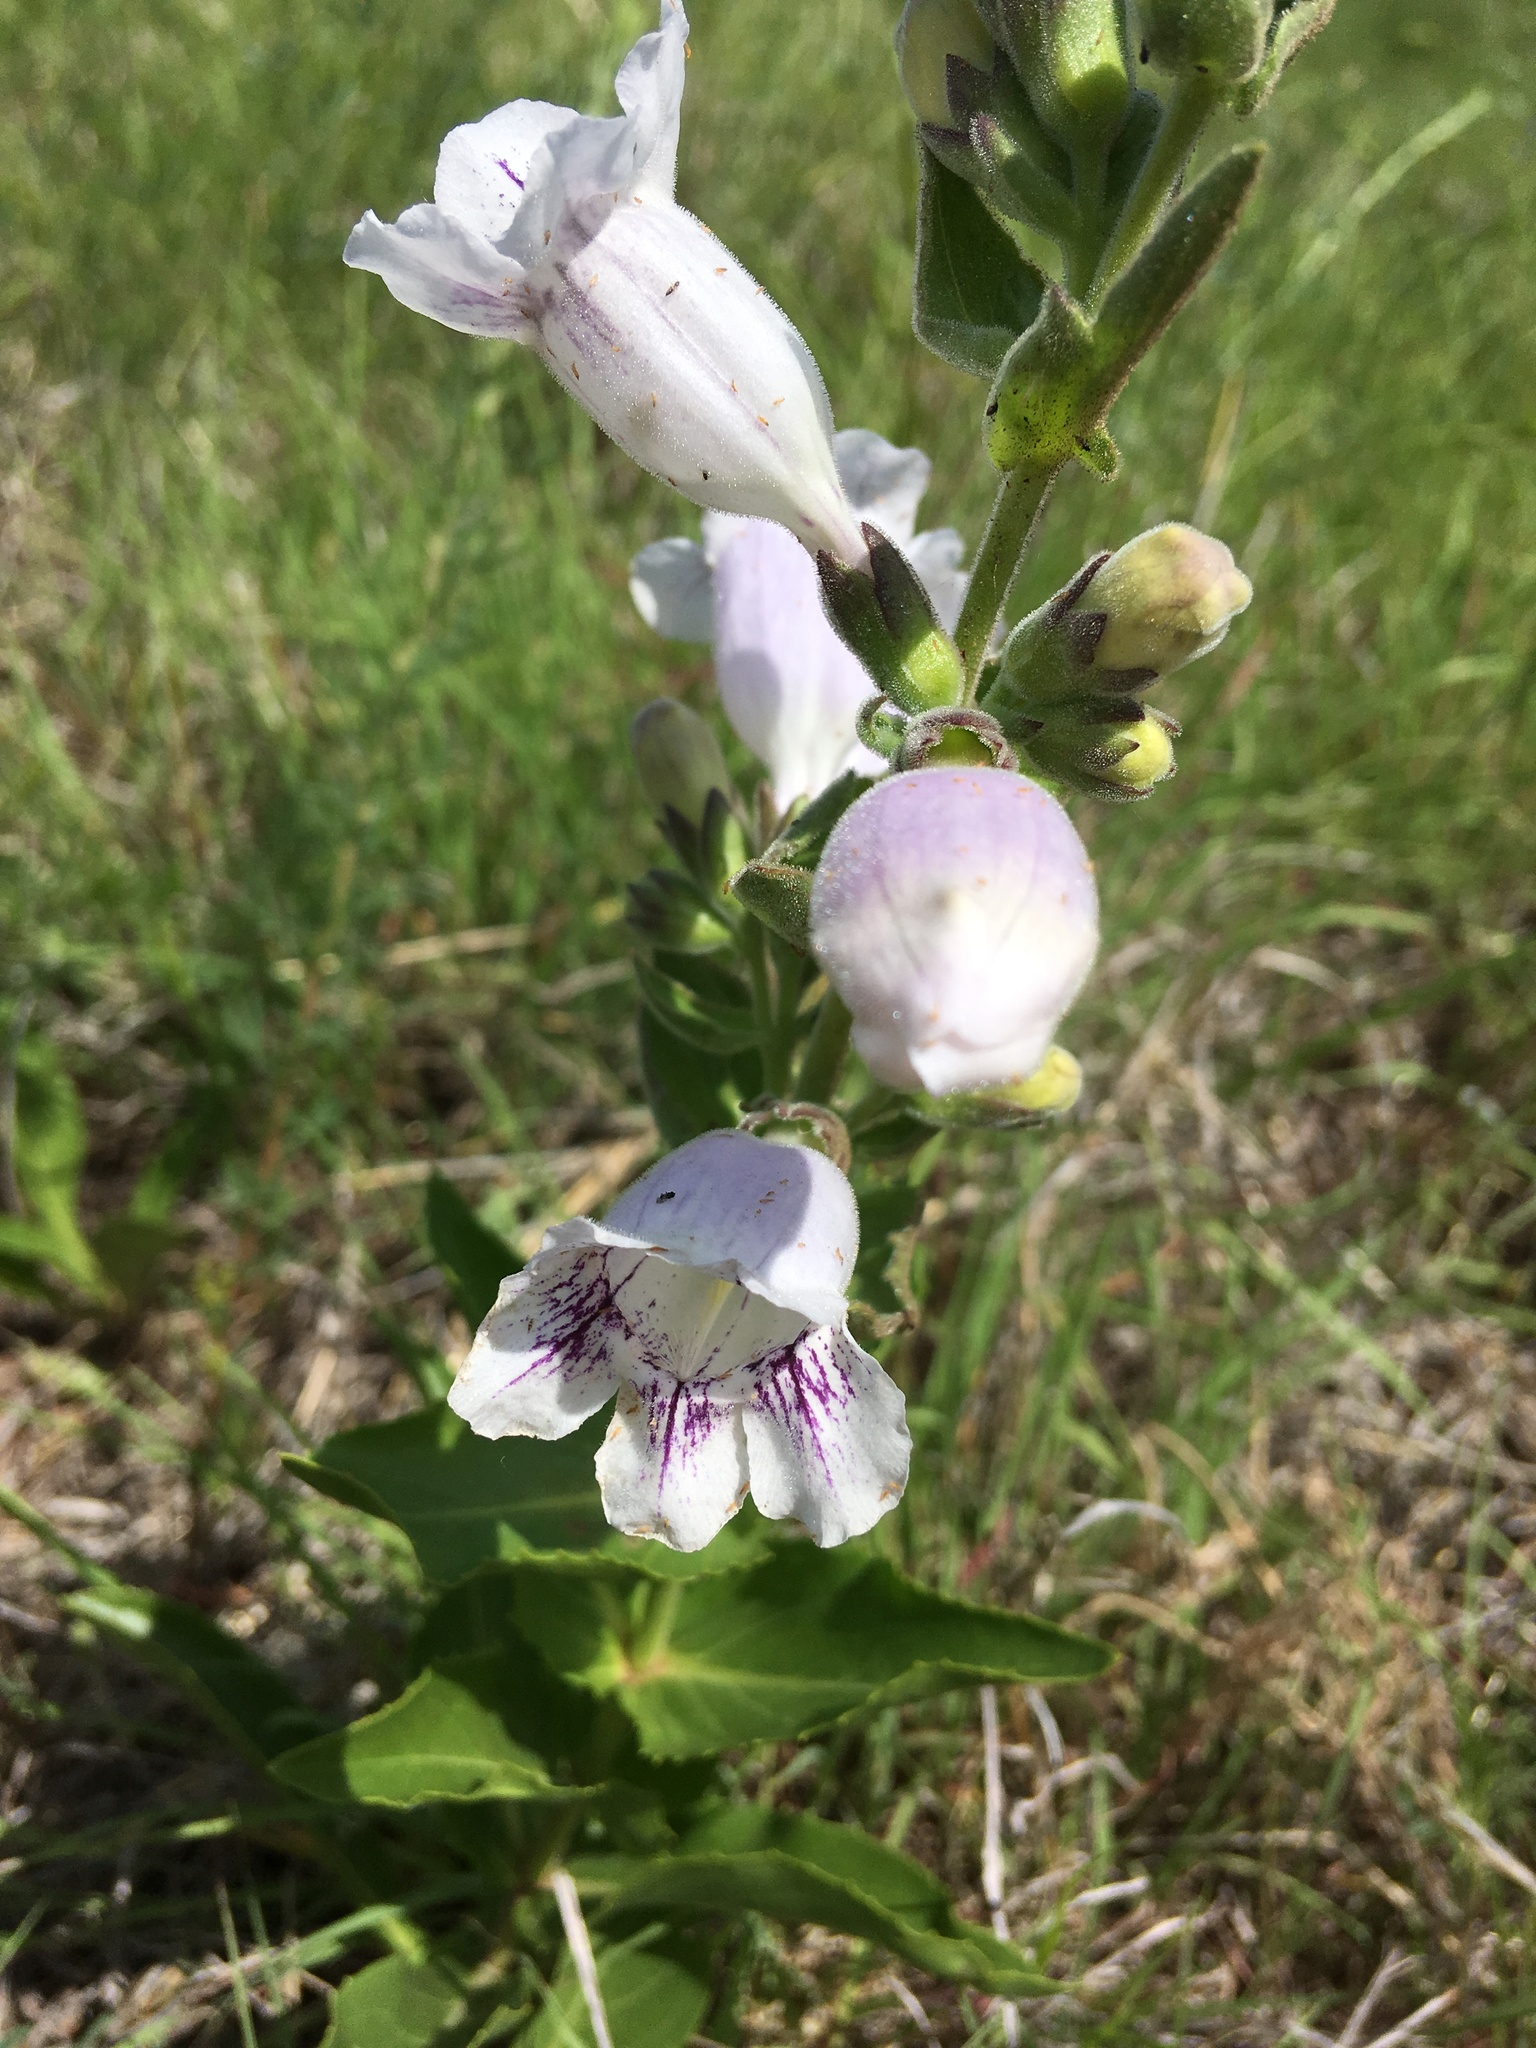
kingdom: Plantae
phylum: Tracheophyta
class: Magnoliopsida
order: Lamiales
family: Plantaginaceae
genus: Penstemon
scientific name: Penstemon cobaea
